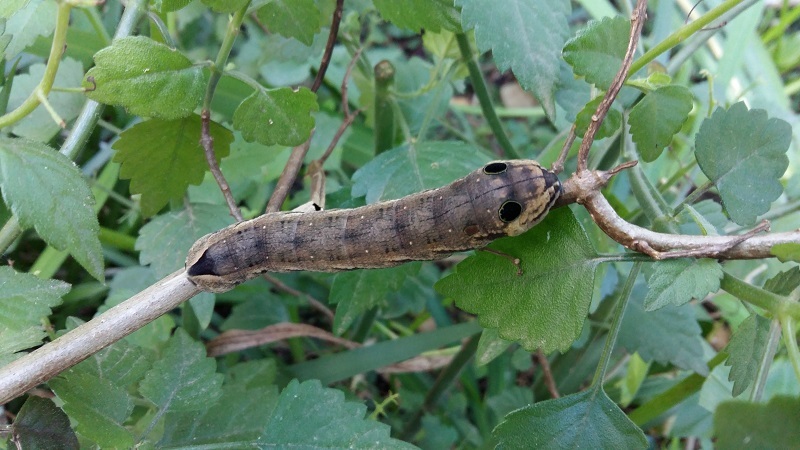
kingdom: Animalia
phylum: Arthropoda
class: Insecta
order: Lepidoptera
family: Sphingidae
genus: Hippotion
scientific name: Hippotion eson
